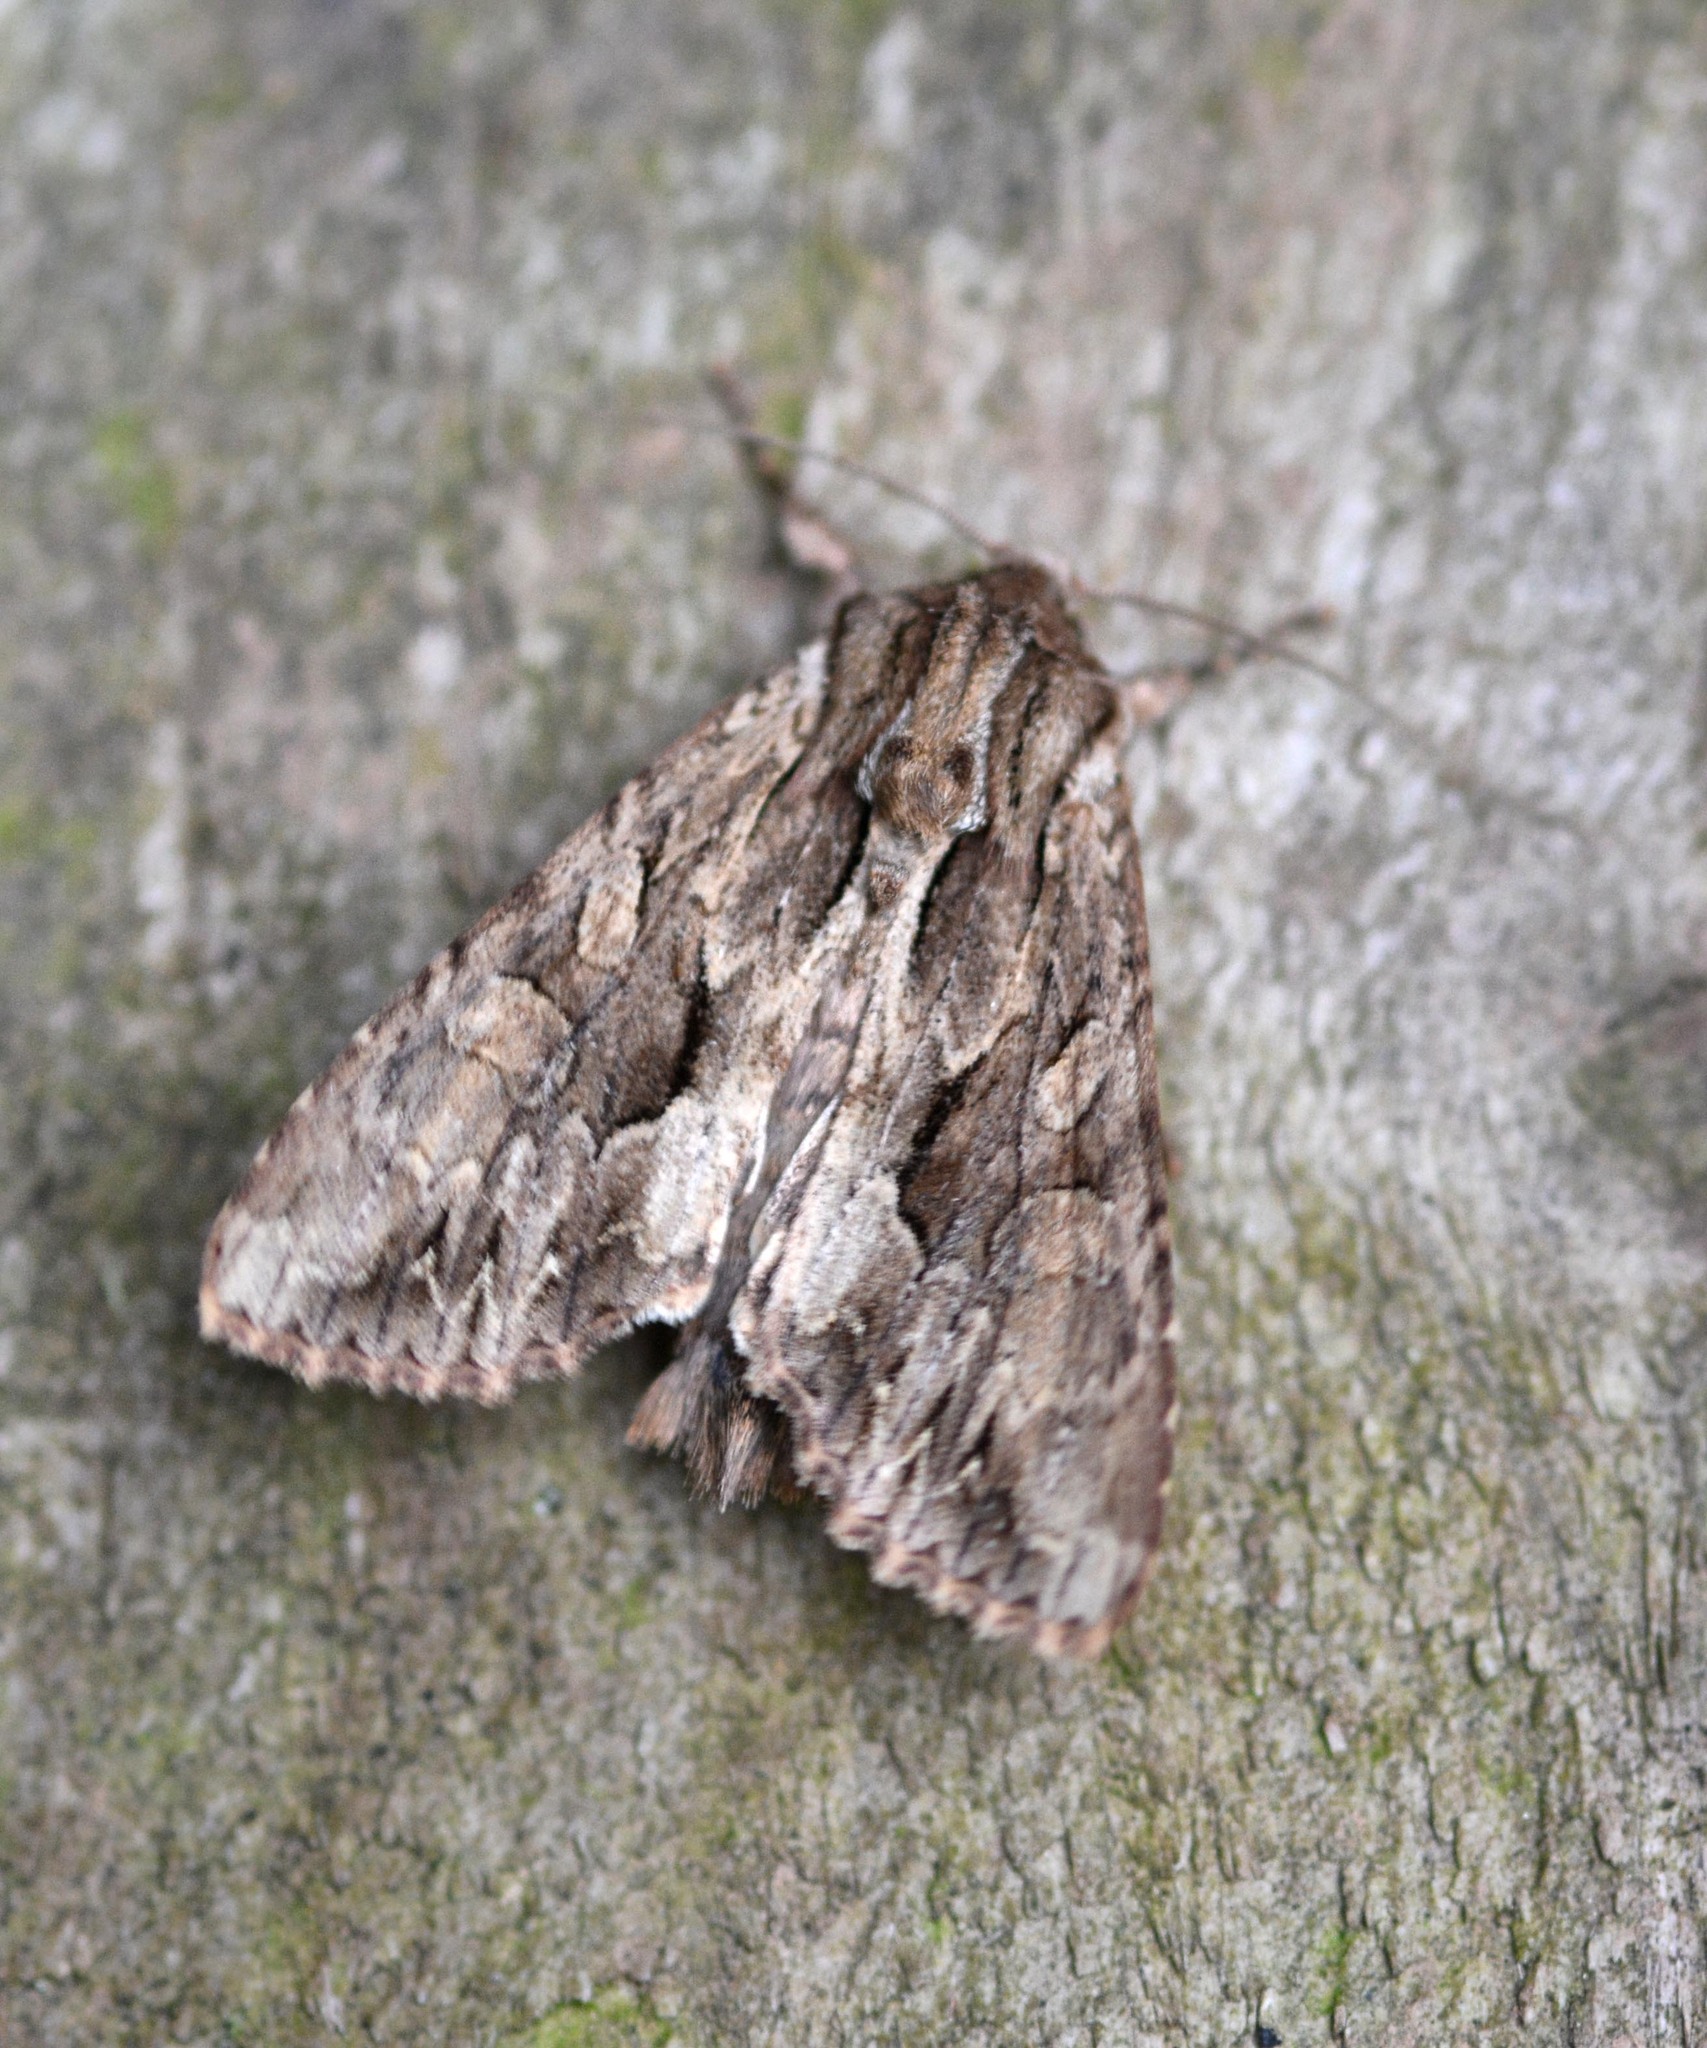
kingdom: Animalia
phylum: Arthropoda
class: Insecta
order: Lepidoptera
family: Noctuidae
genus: Apamea
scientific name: Apamea monoglypha
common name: Dark arches
